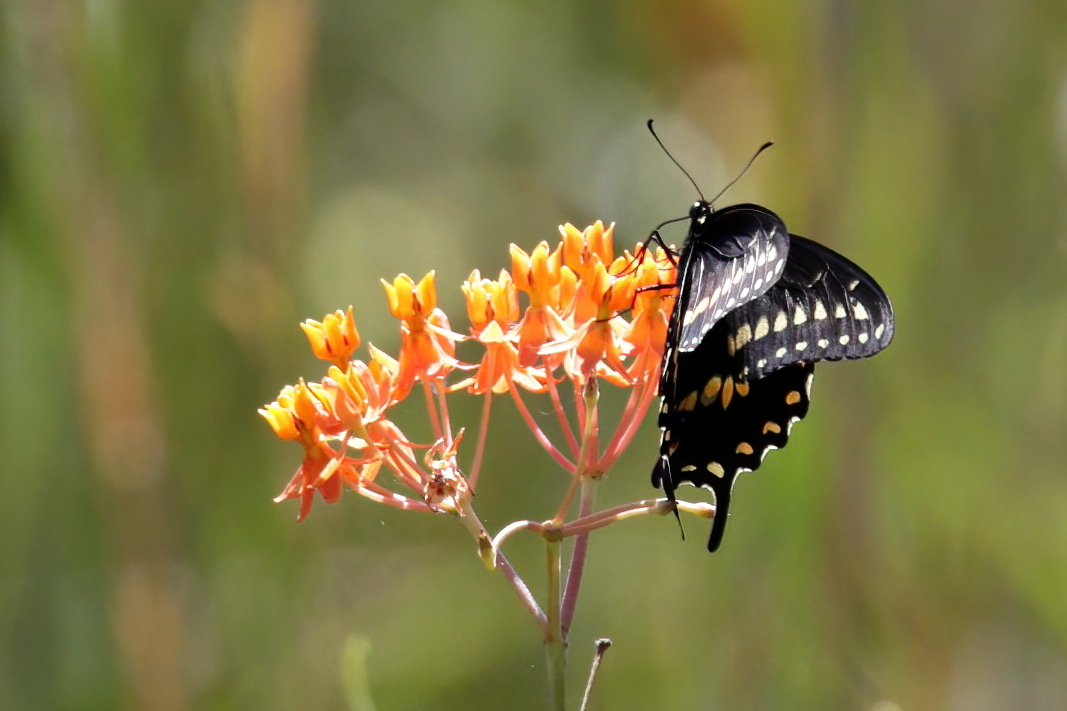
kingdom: Animalia
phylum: Arthropoda
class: Insecta
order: Lepidoptera
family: Papilionidae
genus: Papilio
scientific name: Papilio polyxenes
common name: Black swallowtail
